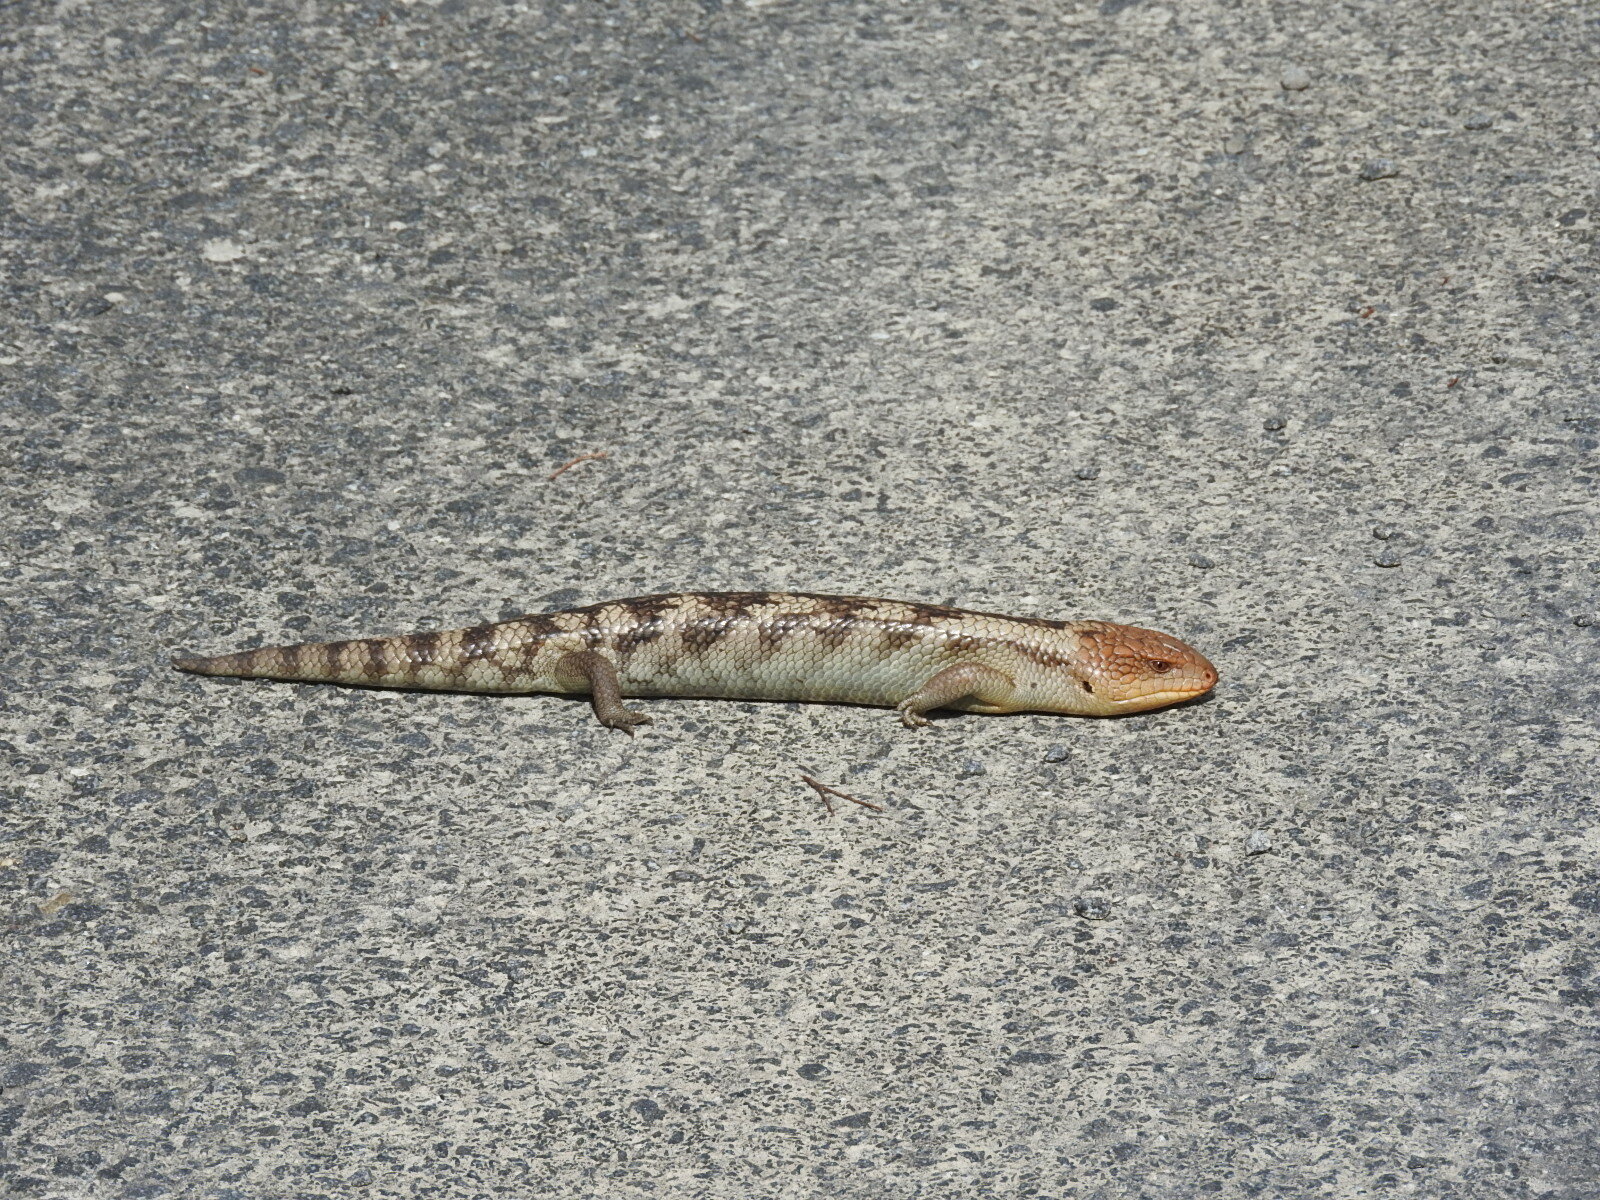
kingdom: Animalia
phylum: Chordata
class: Squamata
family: Scincidae
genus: Tiliqua
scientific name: Tiliqua nigrolutea
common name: Blotched blue-tongued lizard
